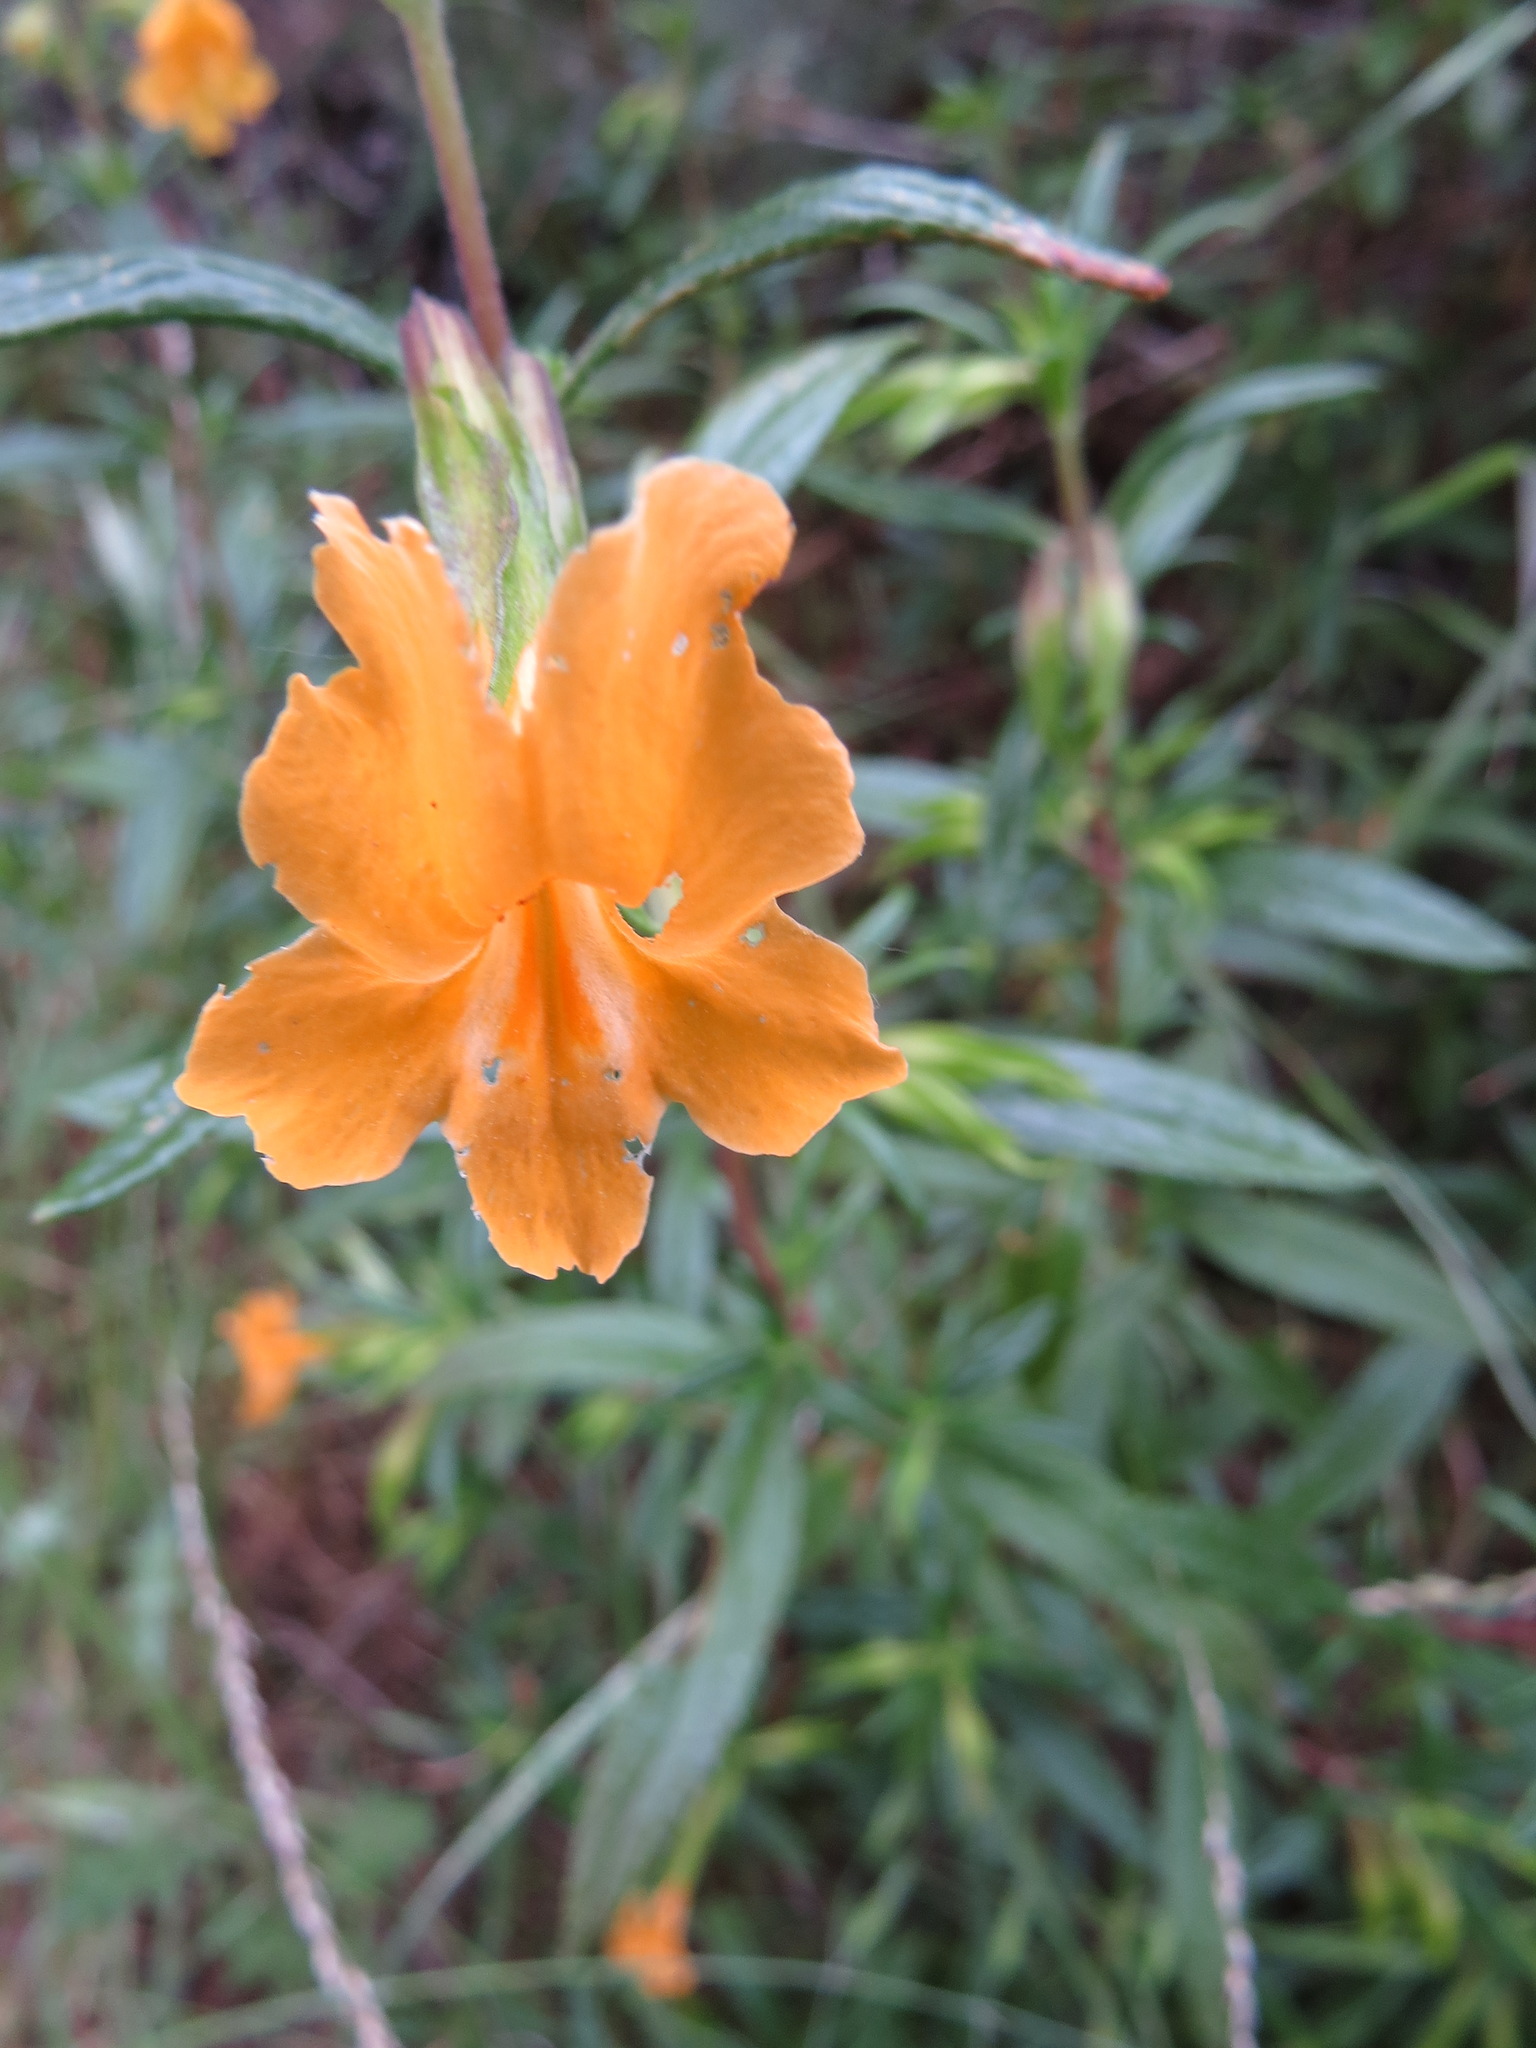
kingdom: Plantae
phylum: Tracheophyta
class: Magnoliopsida
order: Lamiales
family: Phrymaceae
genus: Diplacus
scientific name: Diplacus aurantiacus
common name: Bush monkey-flower
